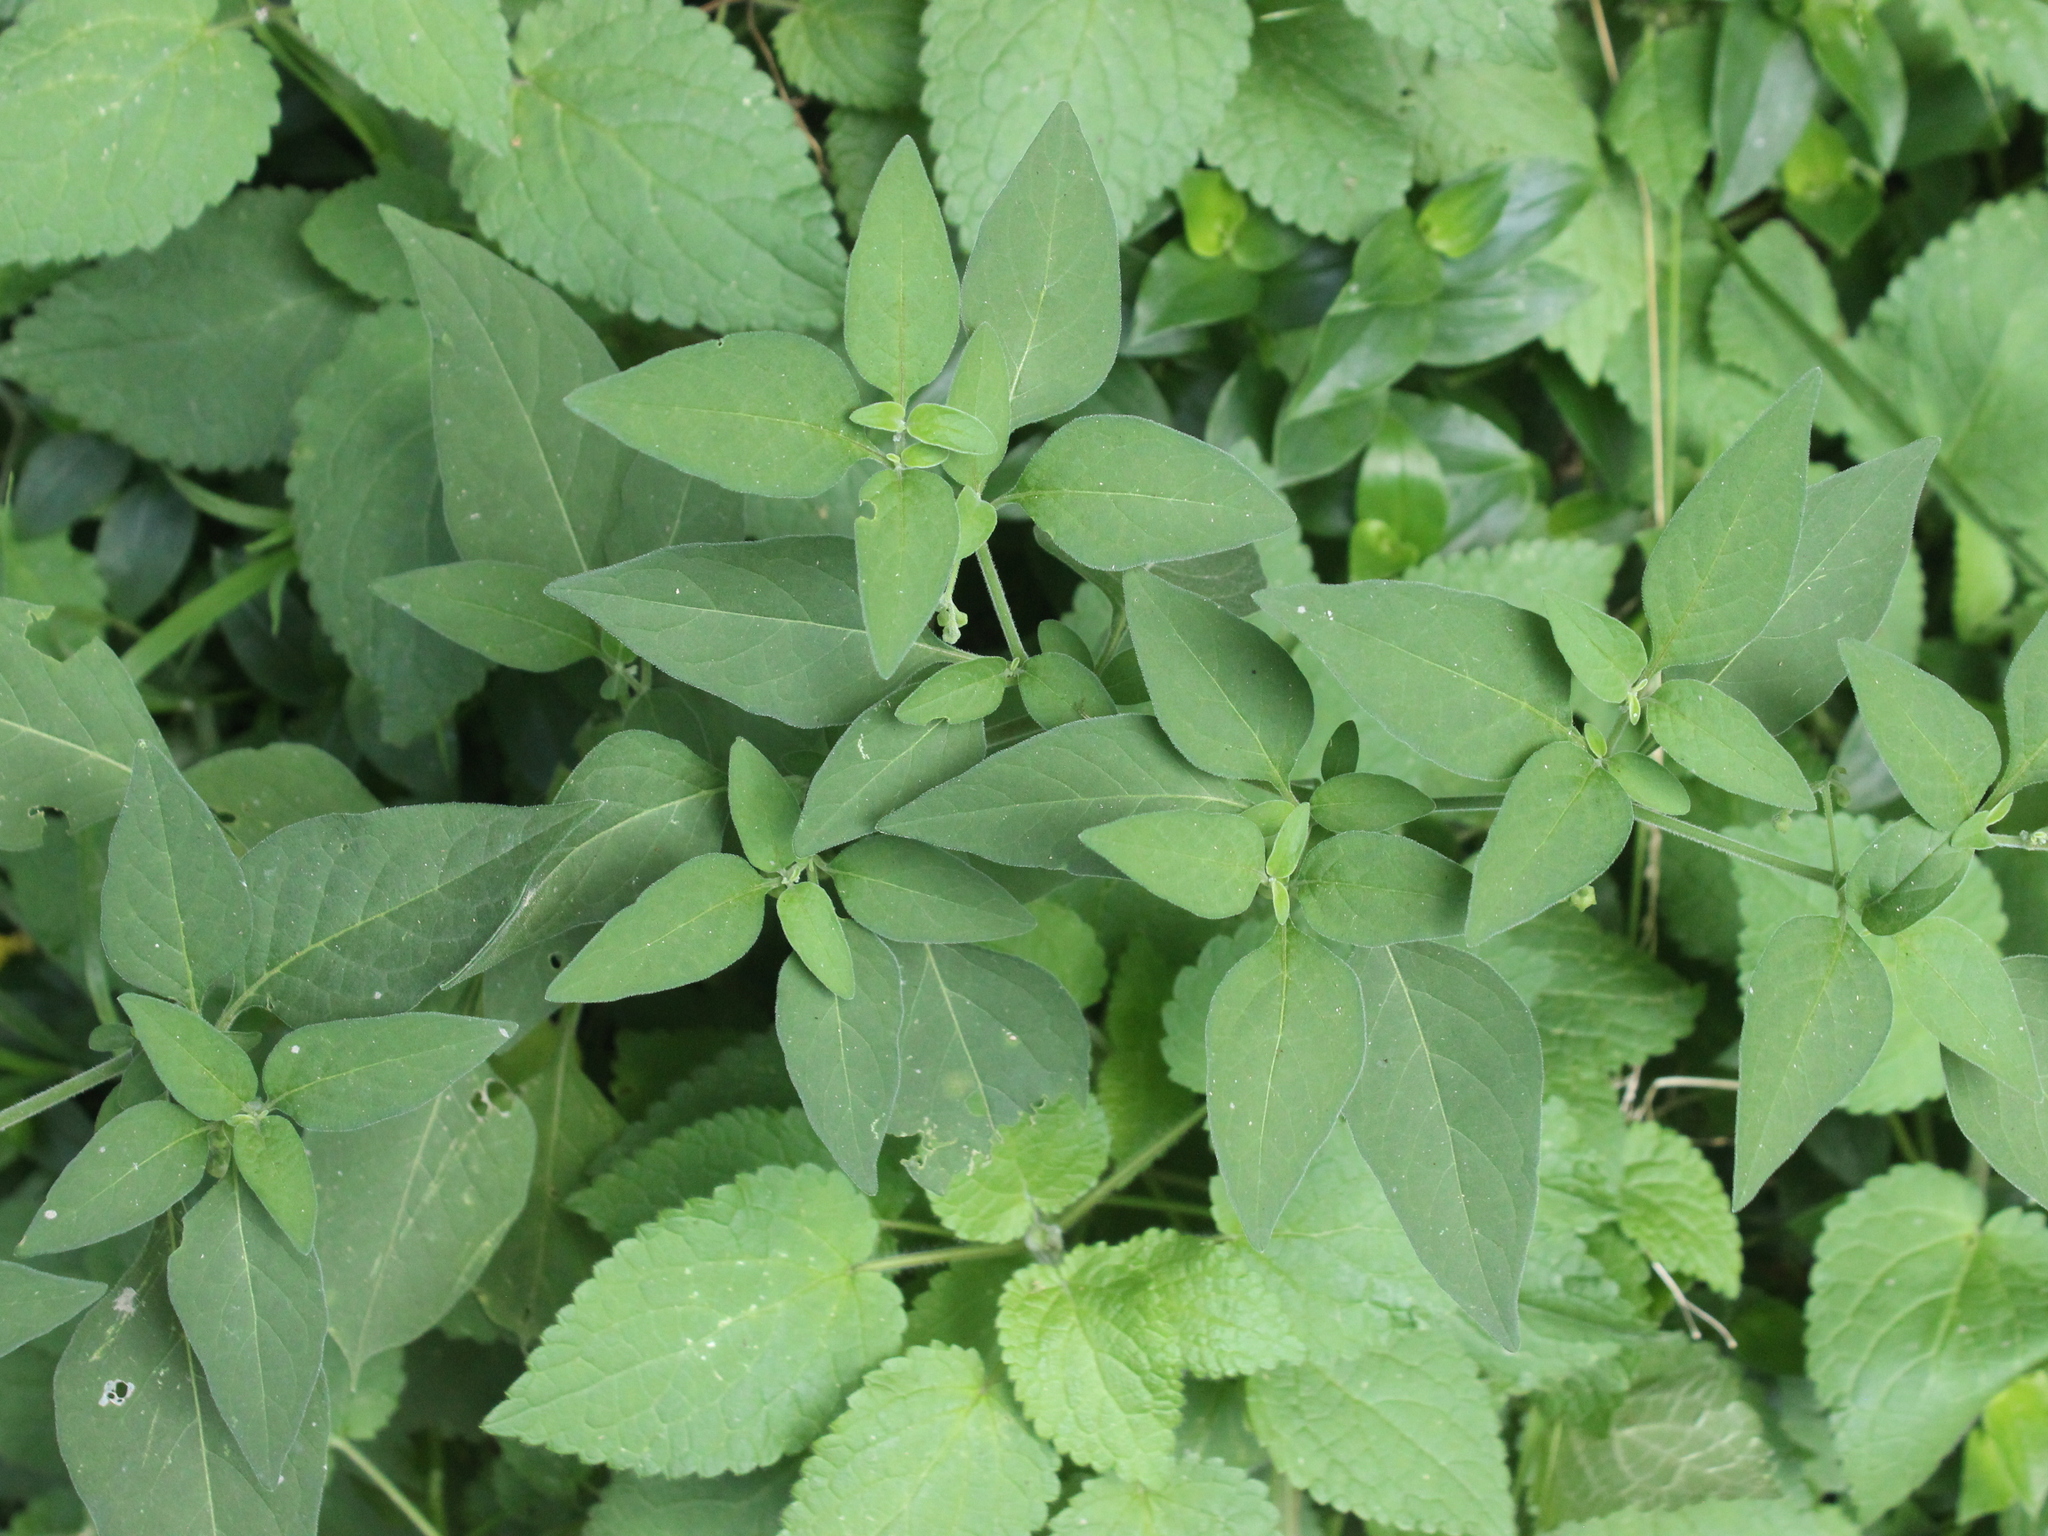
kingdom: Plantae
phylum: Tracheophyta
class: Magnoliopsida
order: Solanales
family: Solanaceae
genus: Solanum
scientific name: Solanum chenopodioides
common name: Tall nightshade
